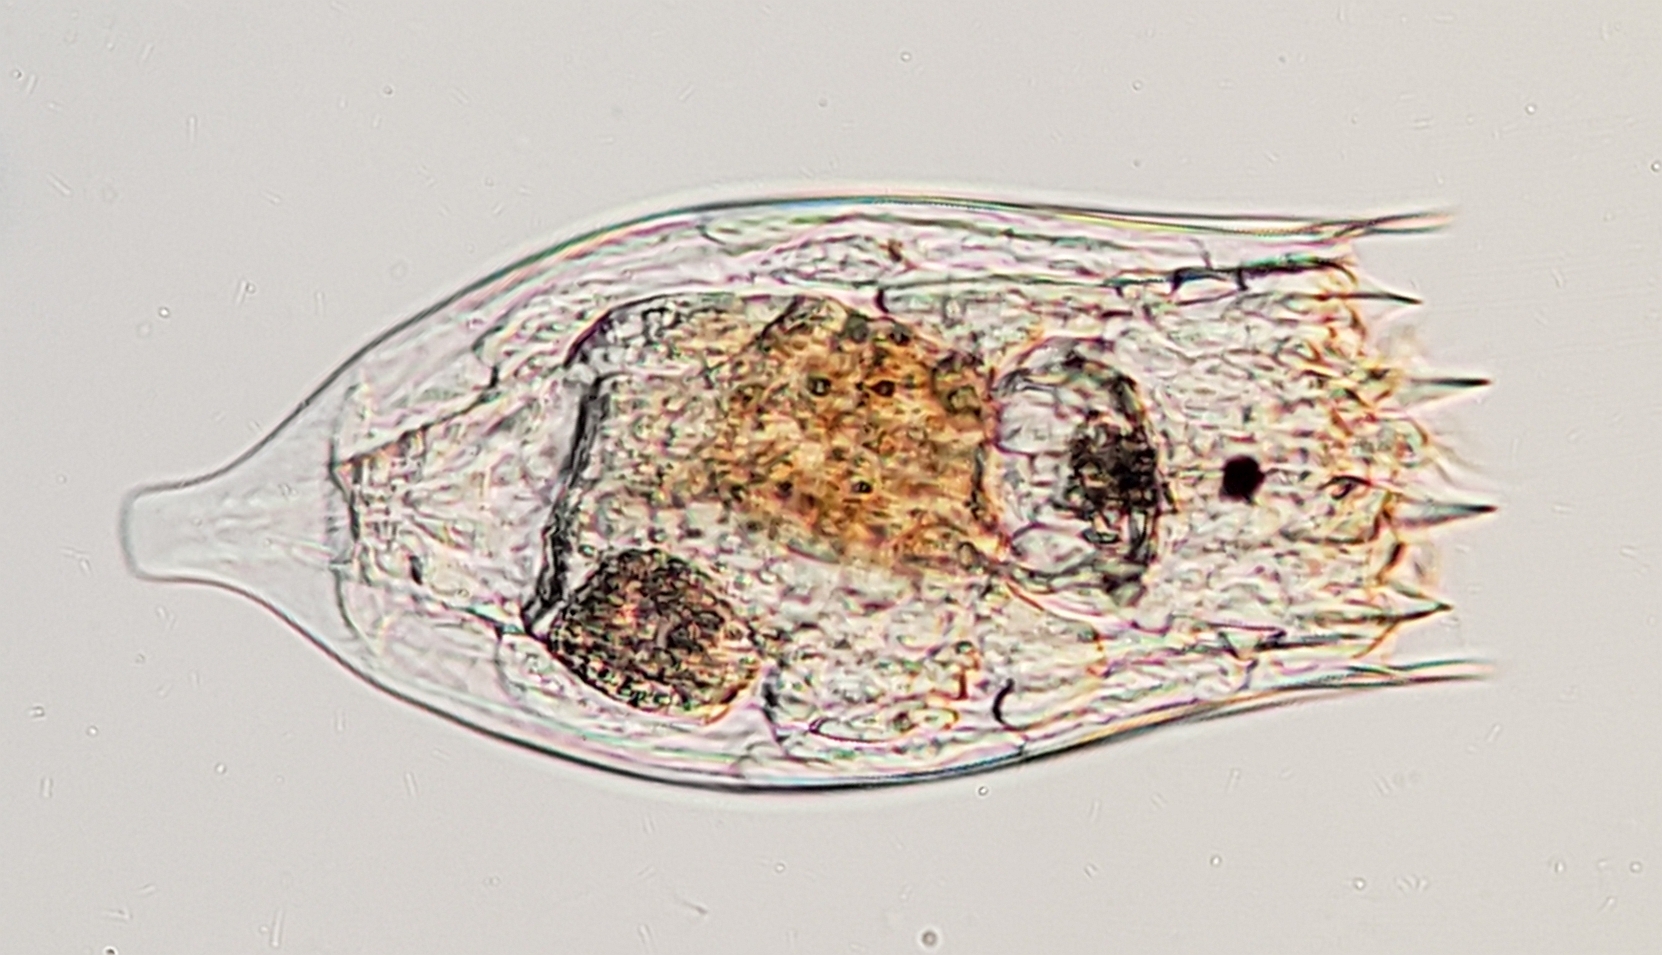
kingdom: Animalia
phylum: Rotifera
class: Eurotatoria
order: Ploima
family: Brachionidae
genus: Notholca
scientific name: Notholca labis
